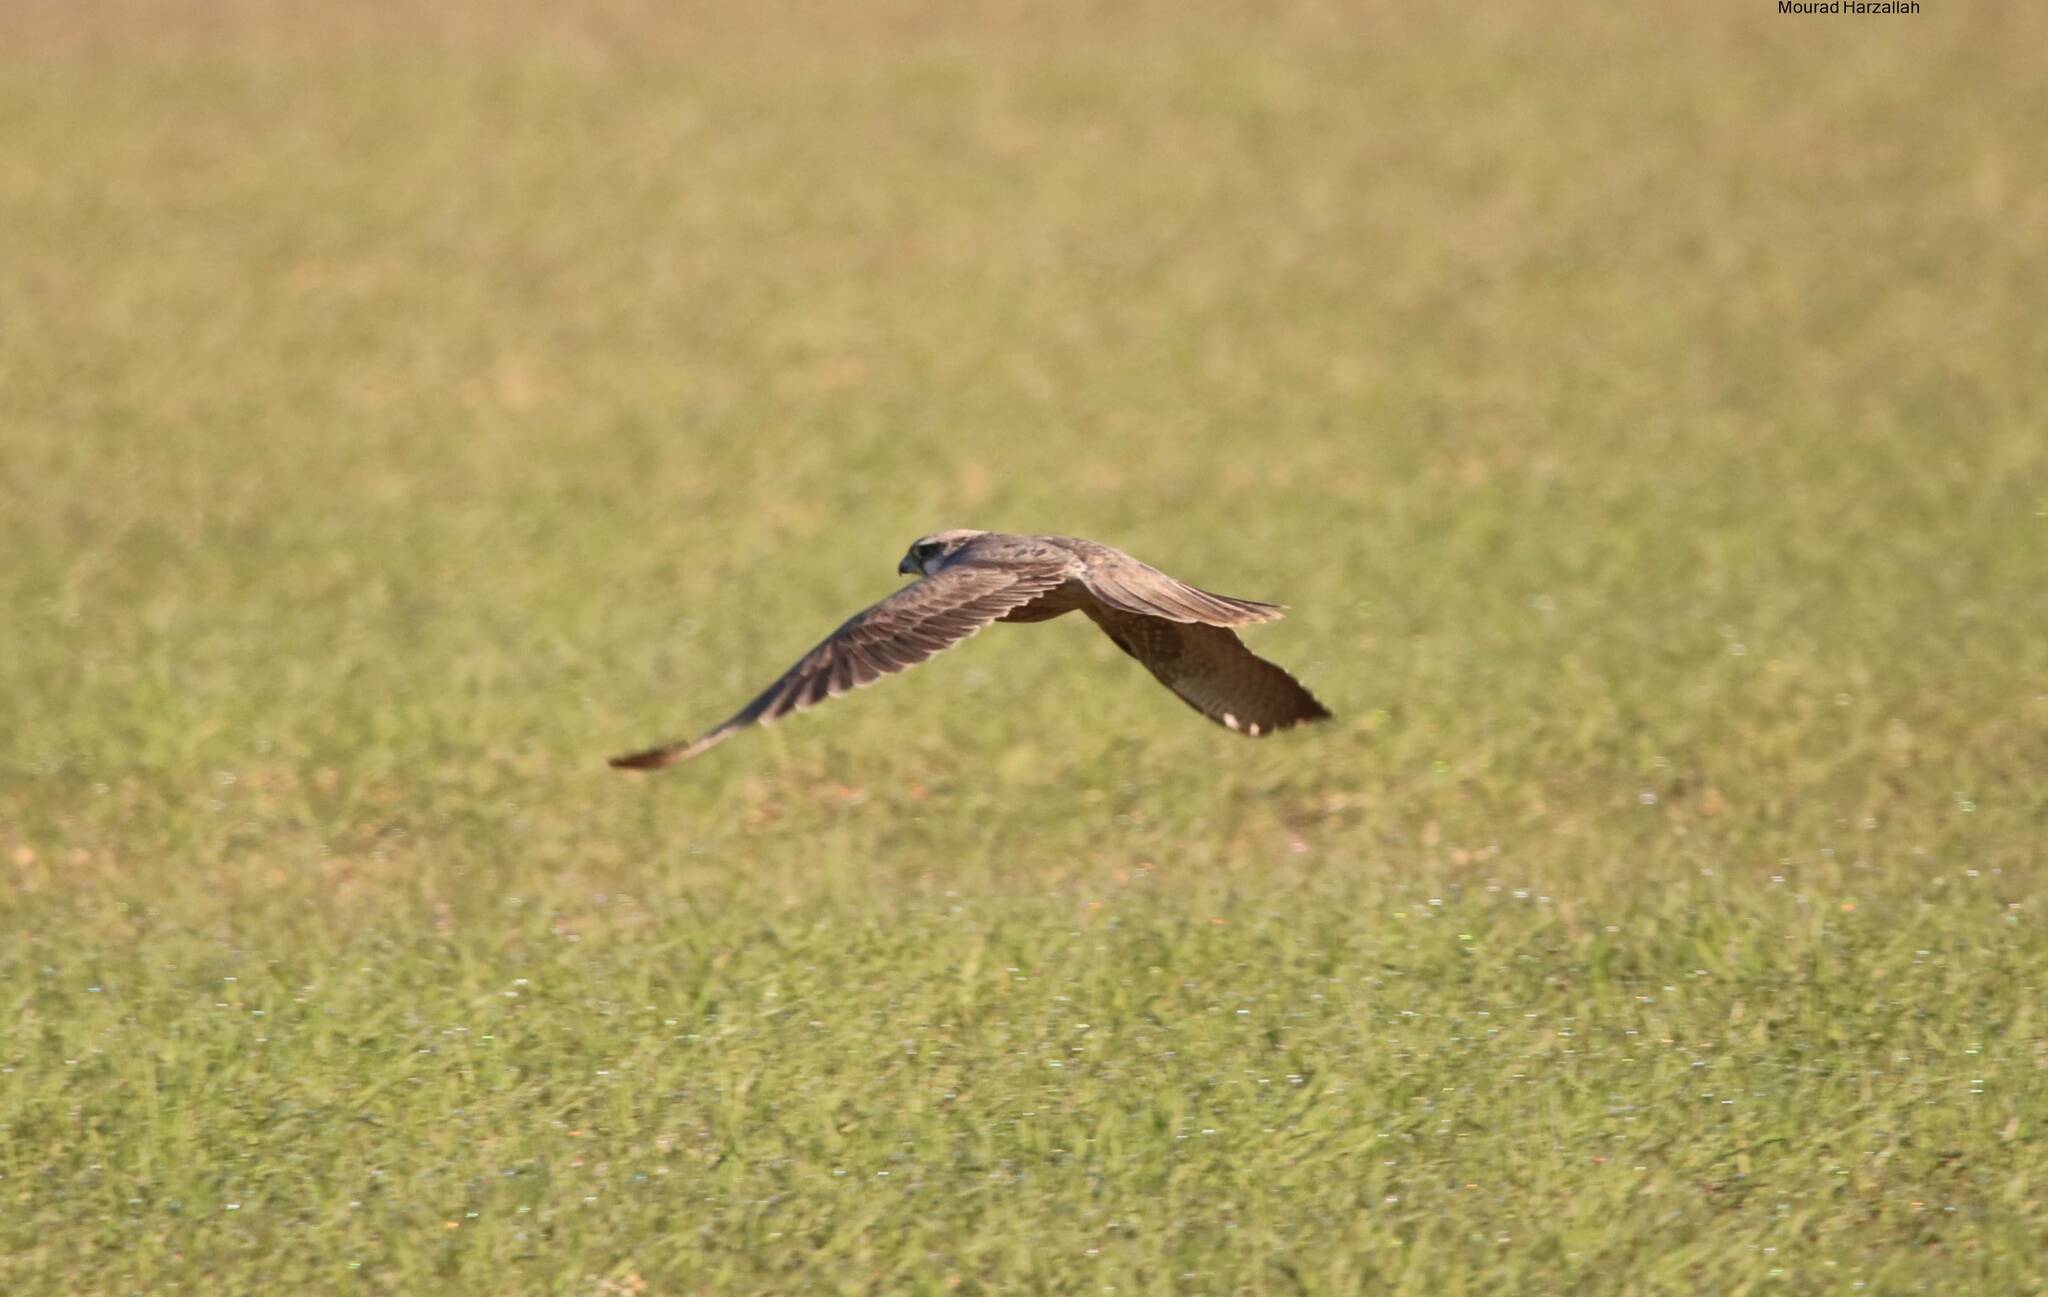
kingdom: Animalia
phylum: Chordata
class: Aves
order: Falconiformes
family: Falconidae
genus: Falco
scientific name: Falco biarmicus
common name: Lanner falcon
